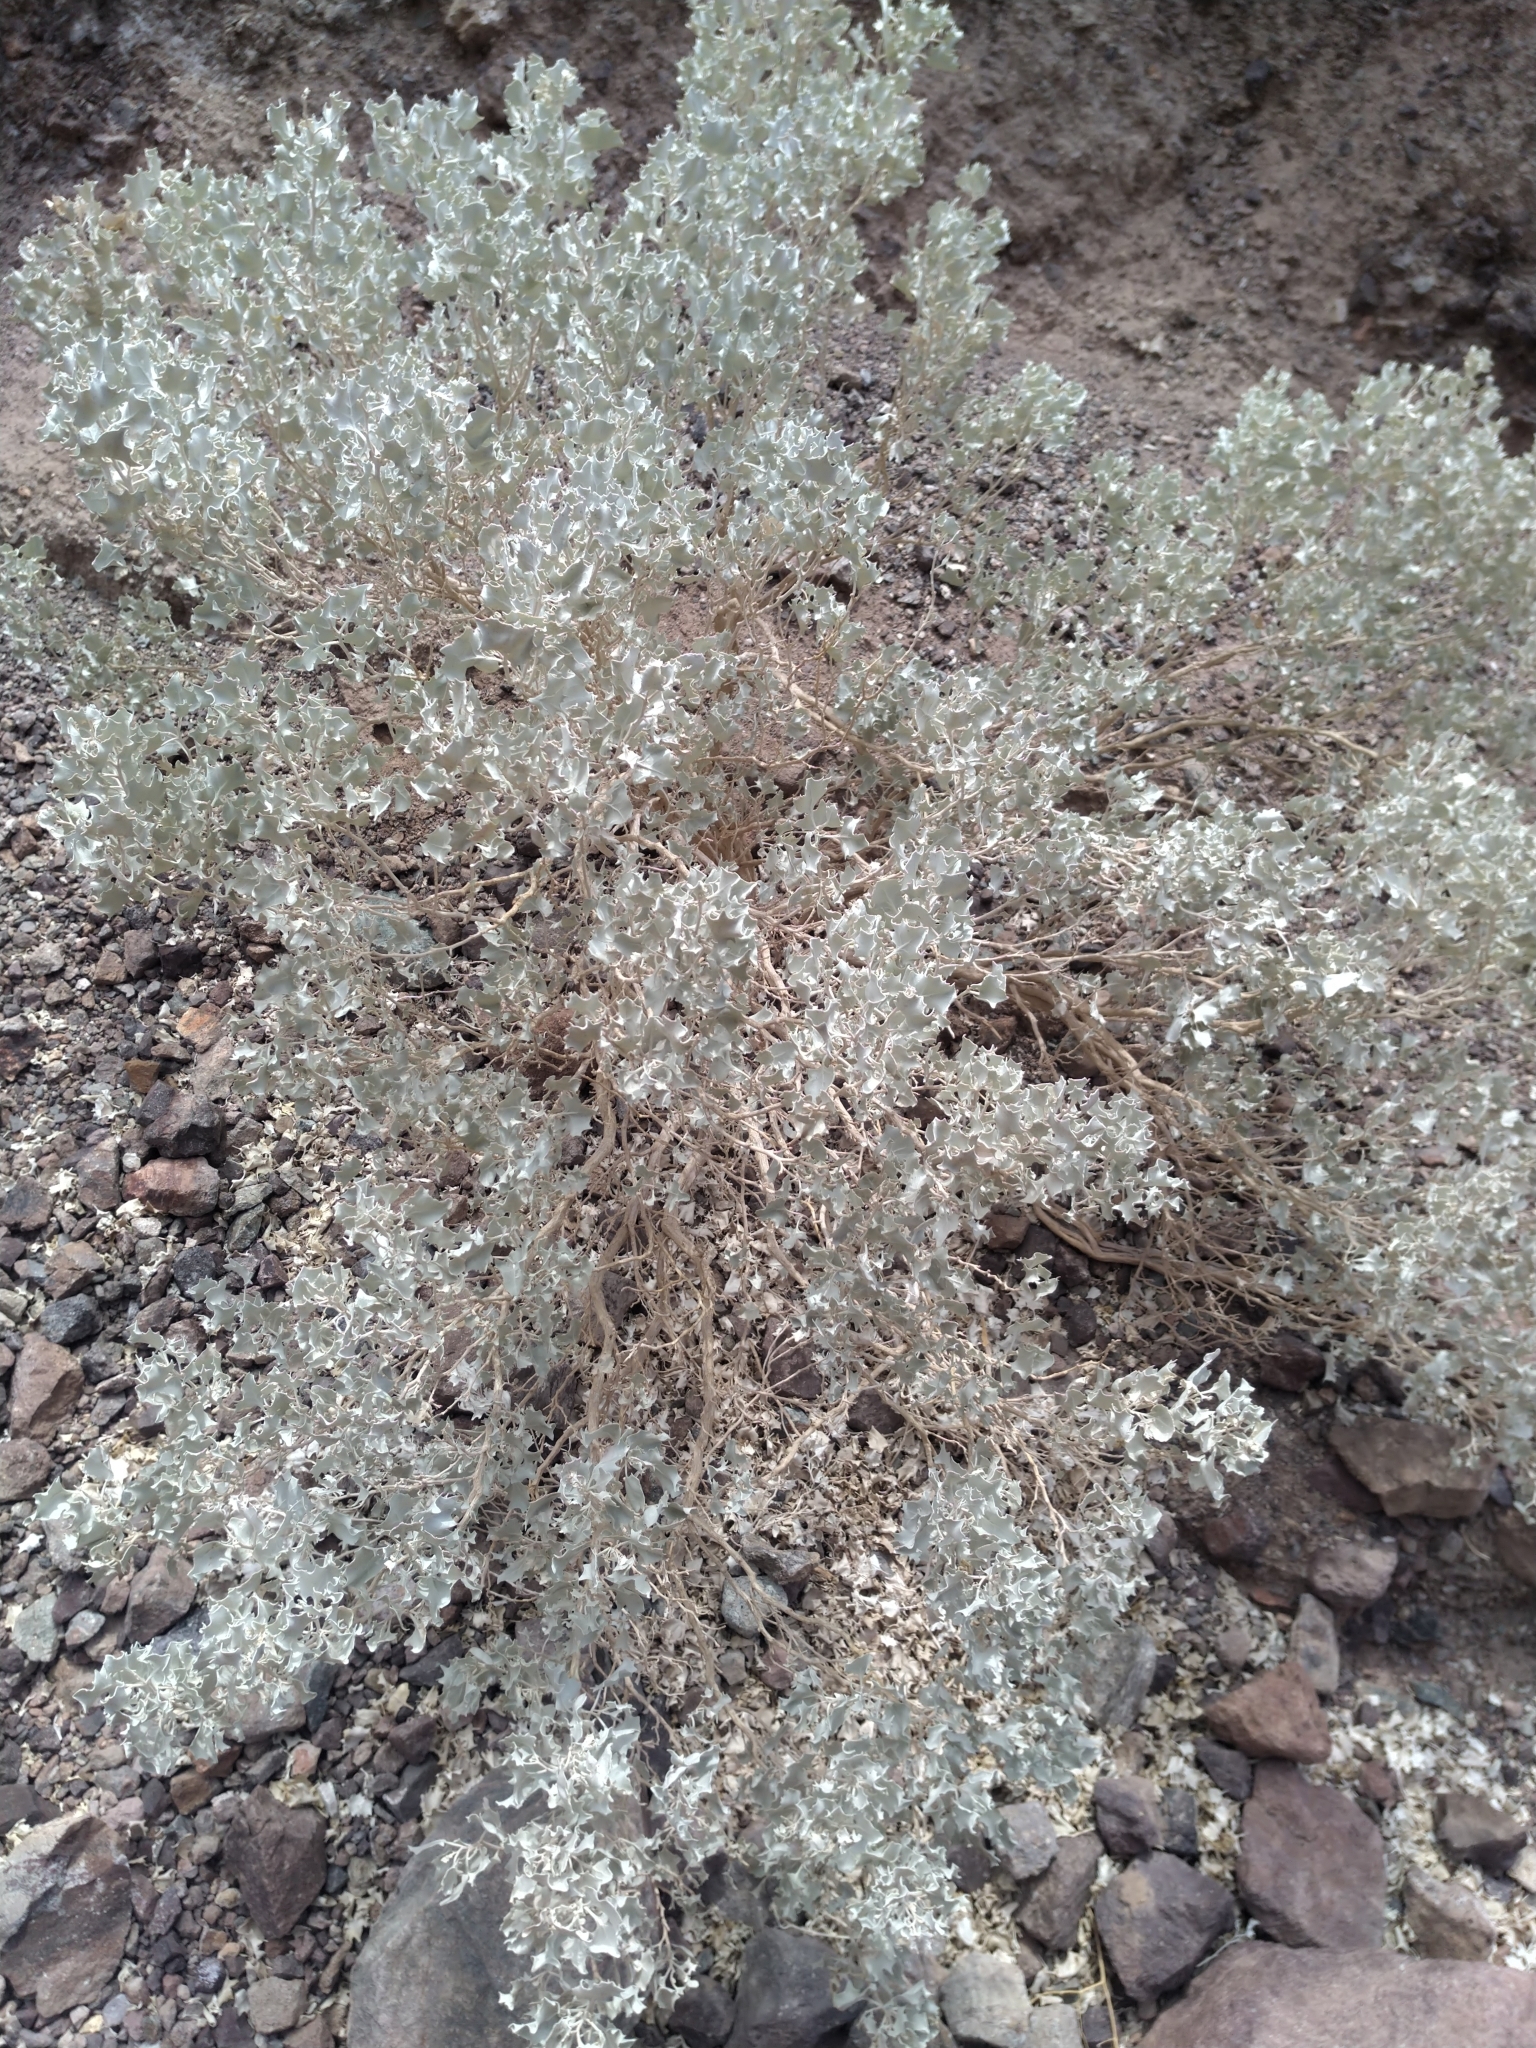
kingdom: Plantae
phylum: Tracheophyta
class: Magnoliopsida
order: Caryophyllales
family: Amaranthaceae
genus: Atriplex
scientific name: Atriplex hymenelytra
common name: Desert-holly
